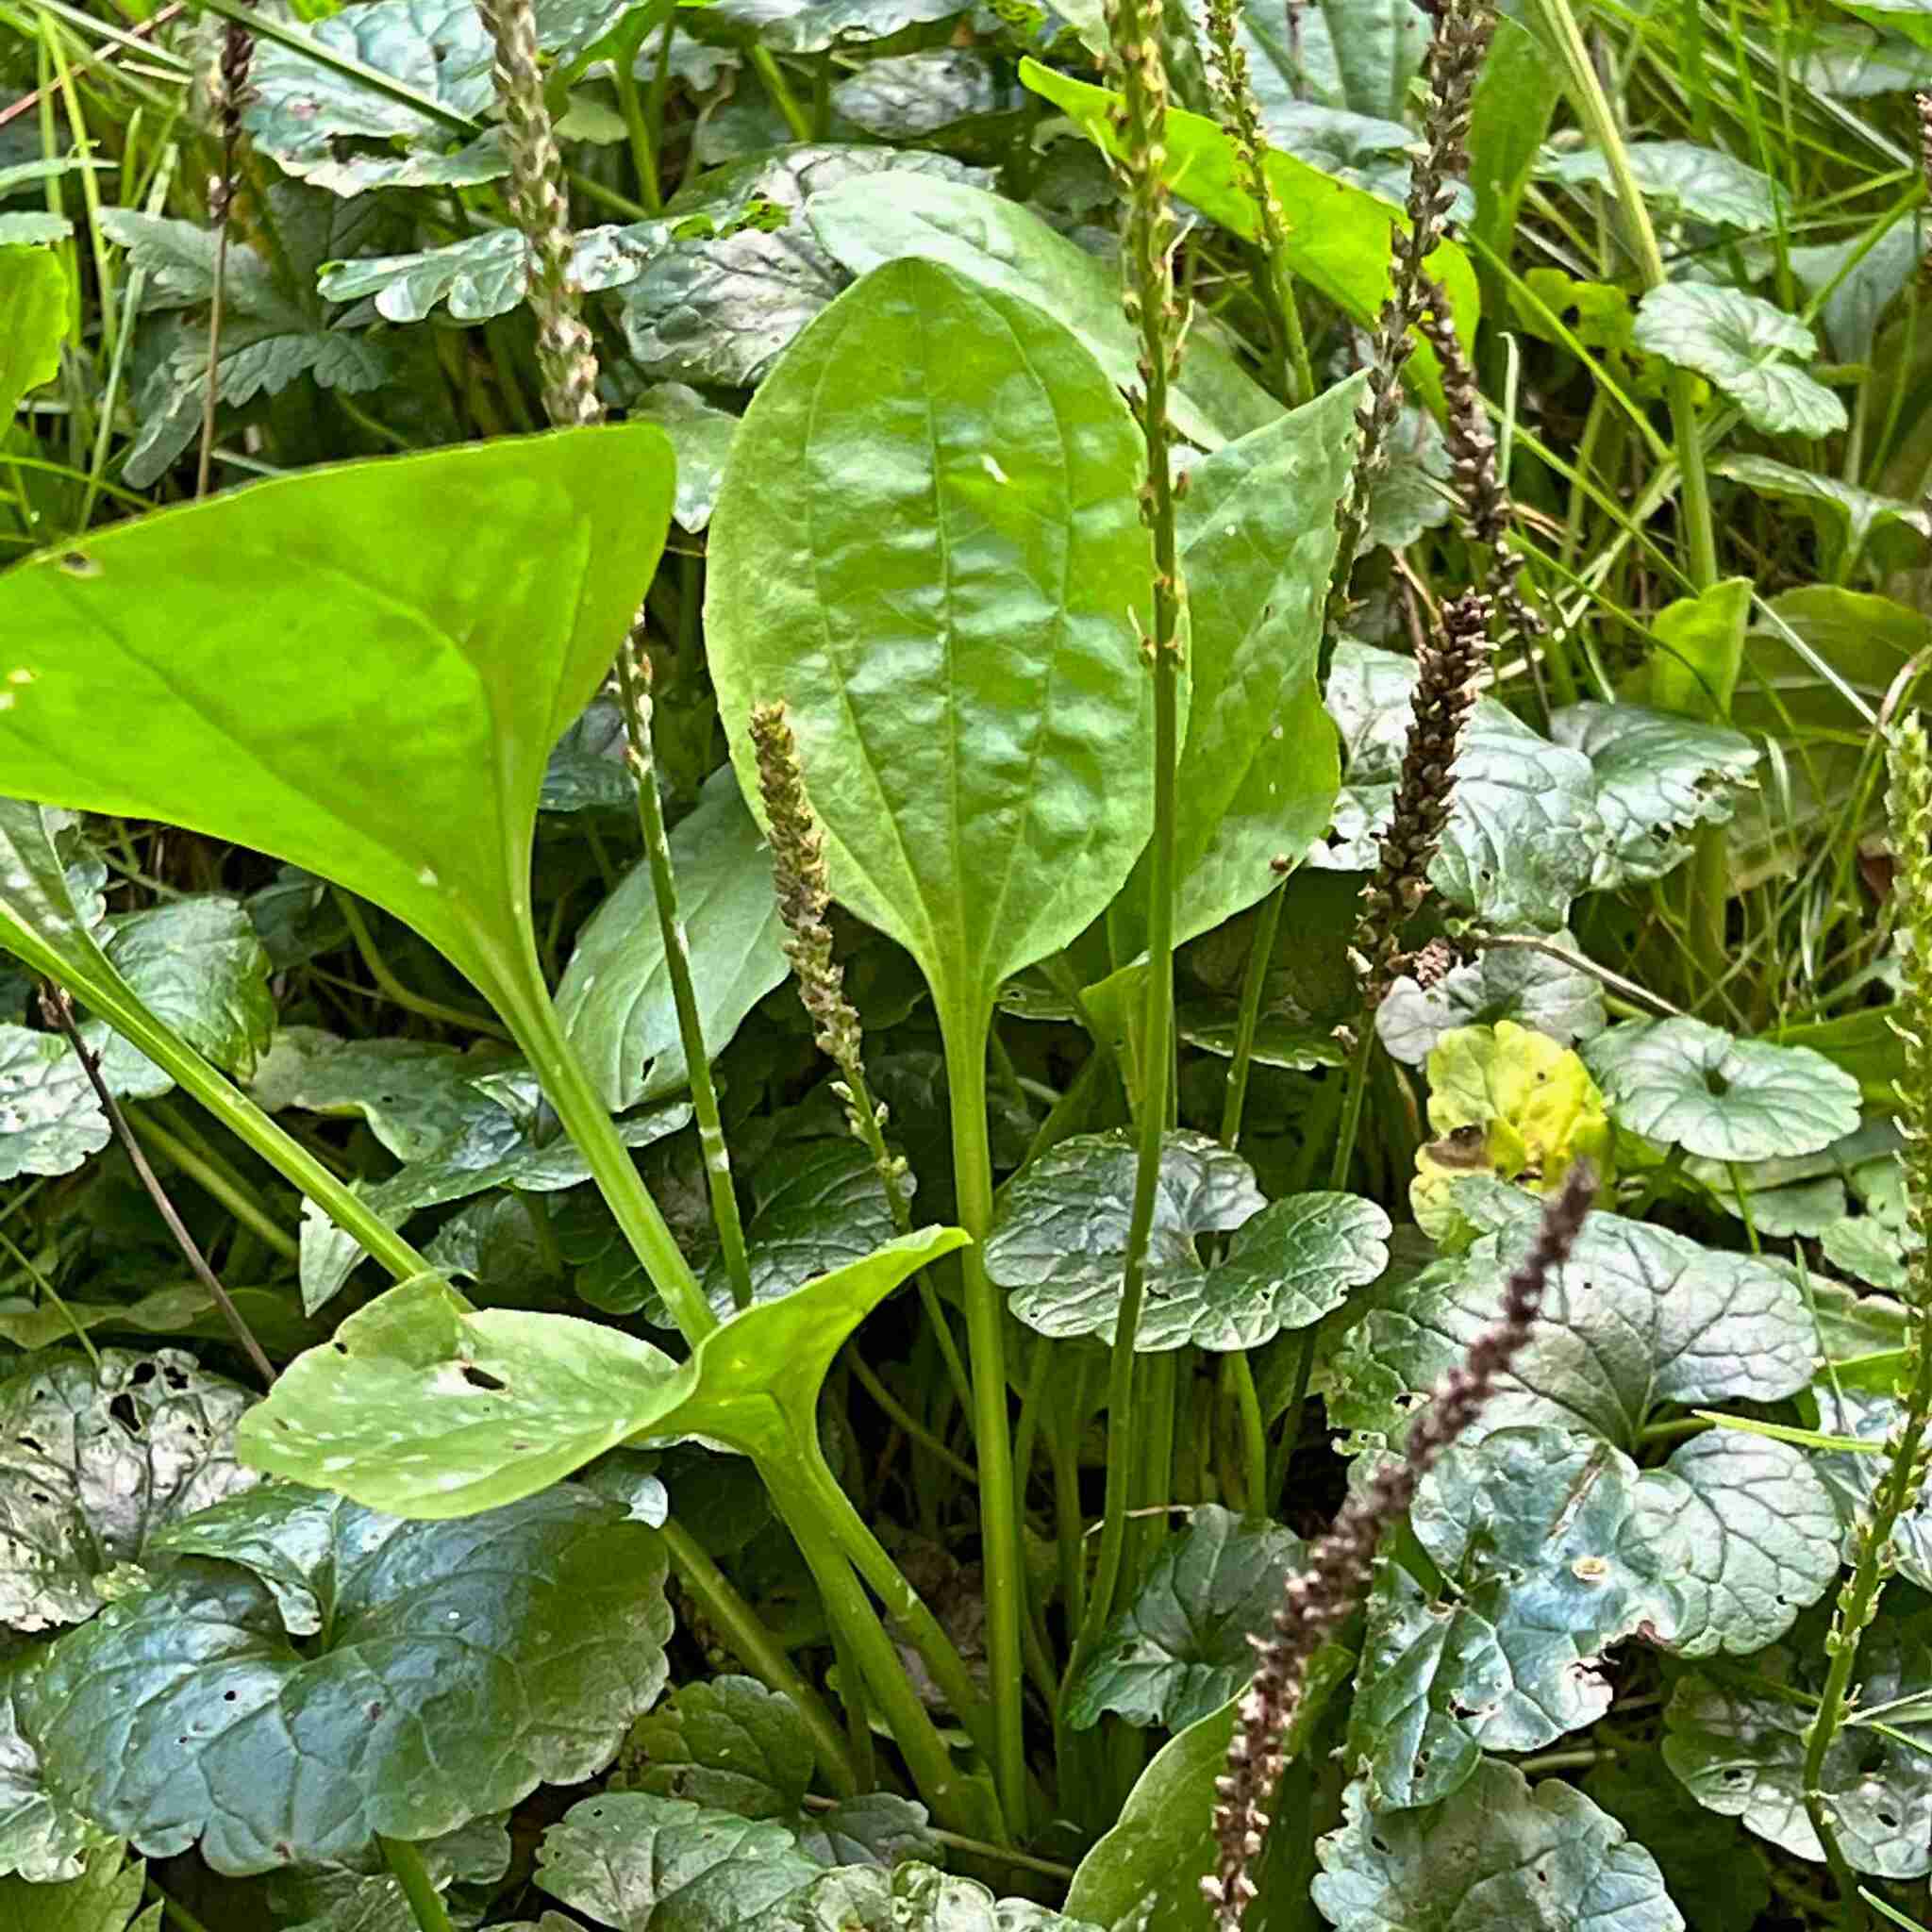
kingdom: Plantae
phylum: Tracheophyta
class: Magnoliopsida
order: Lamiales
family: Plantaginaceae
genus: Plantago
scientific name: Plantago major
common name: Common plantain
